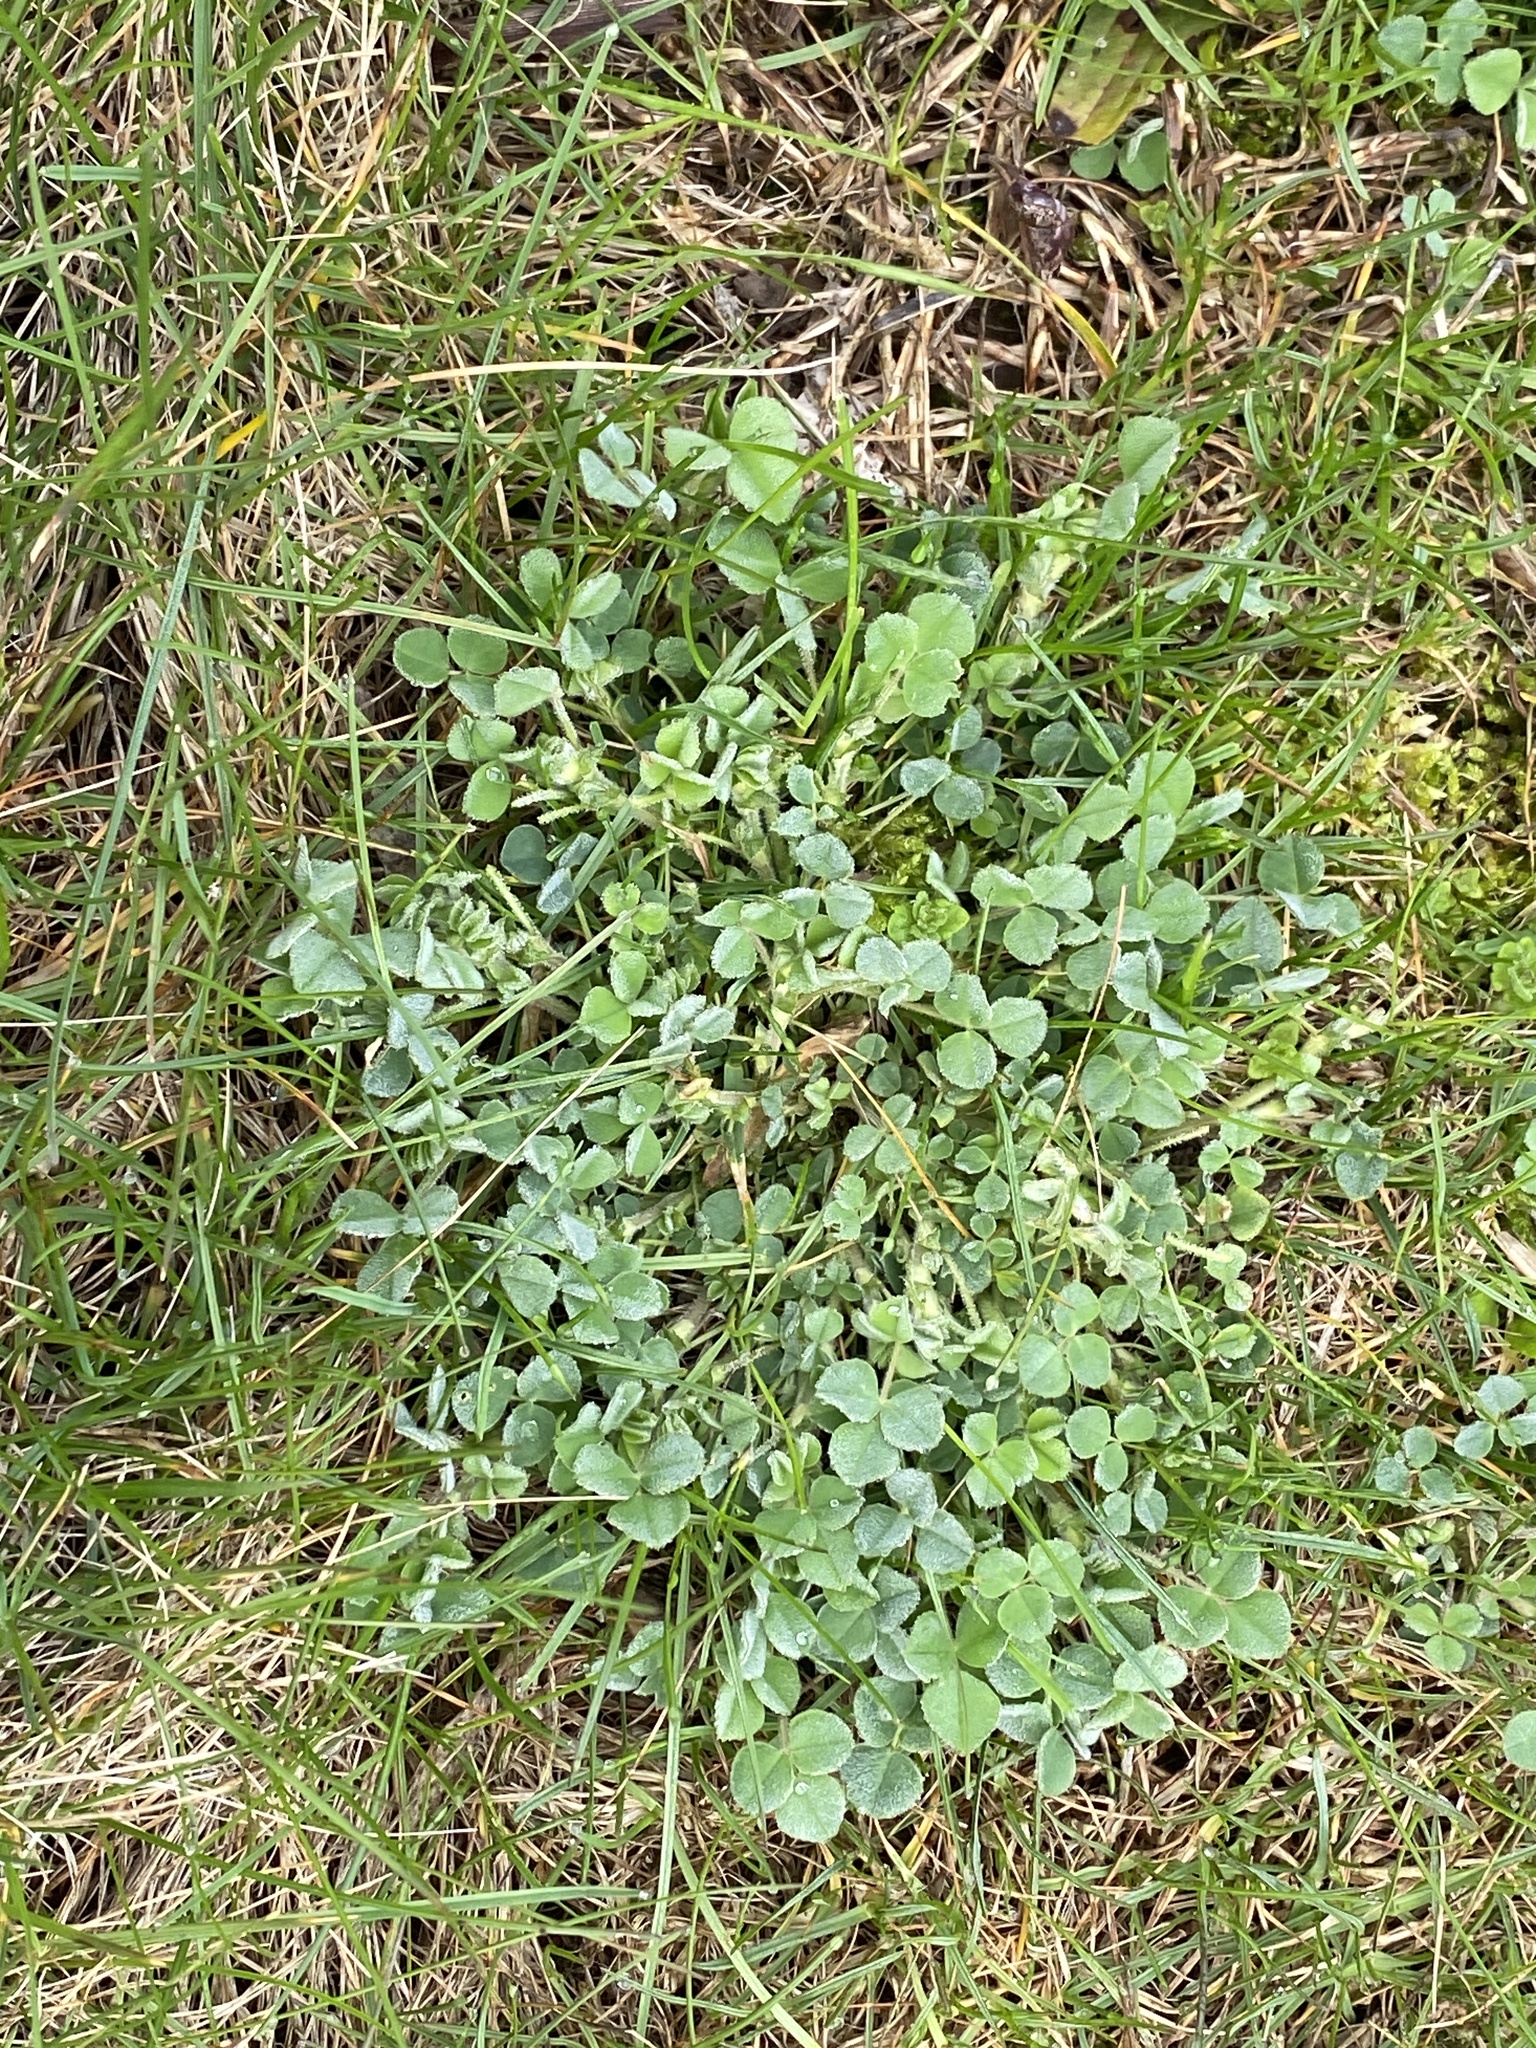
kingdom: Plantae
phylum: Tracheophyta
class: Magnoliopsida
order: Fabales
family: Fabaceae
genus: Medicago
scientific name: Medicago lupulina
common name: Black medick
